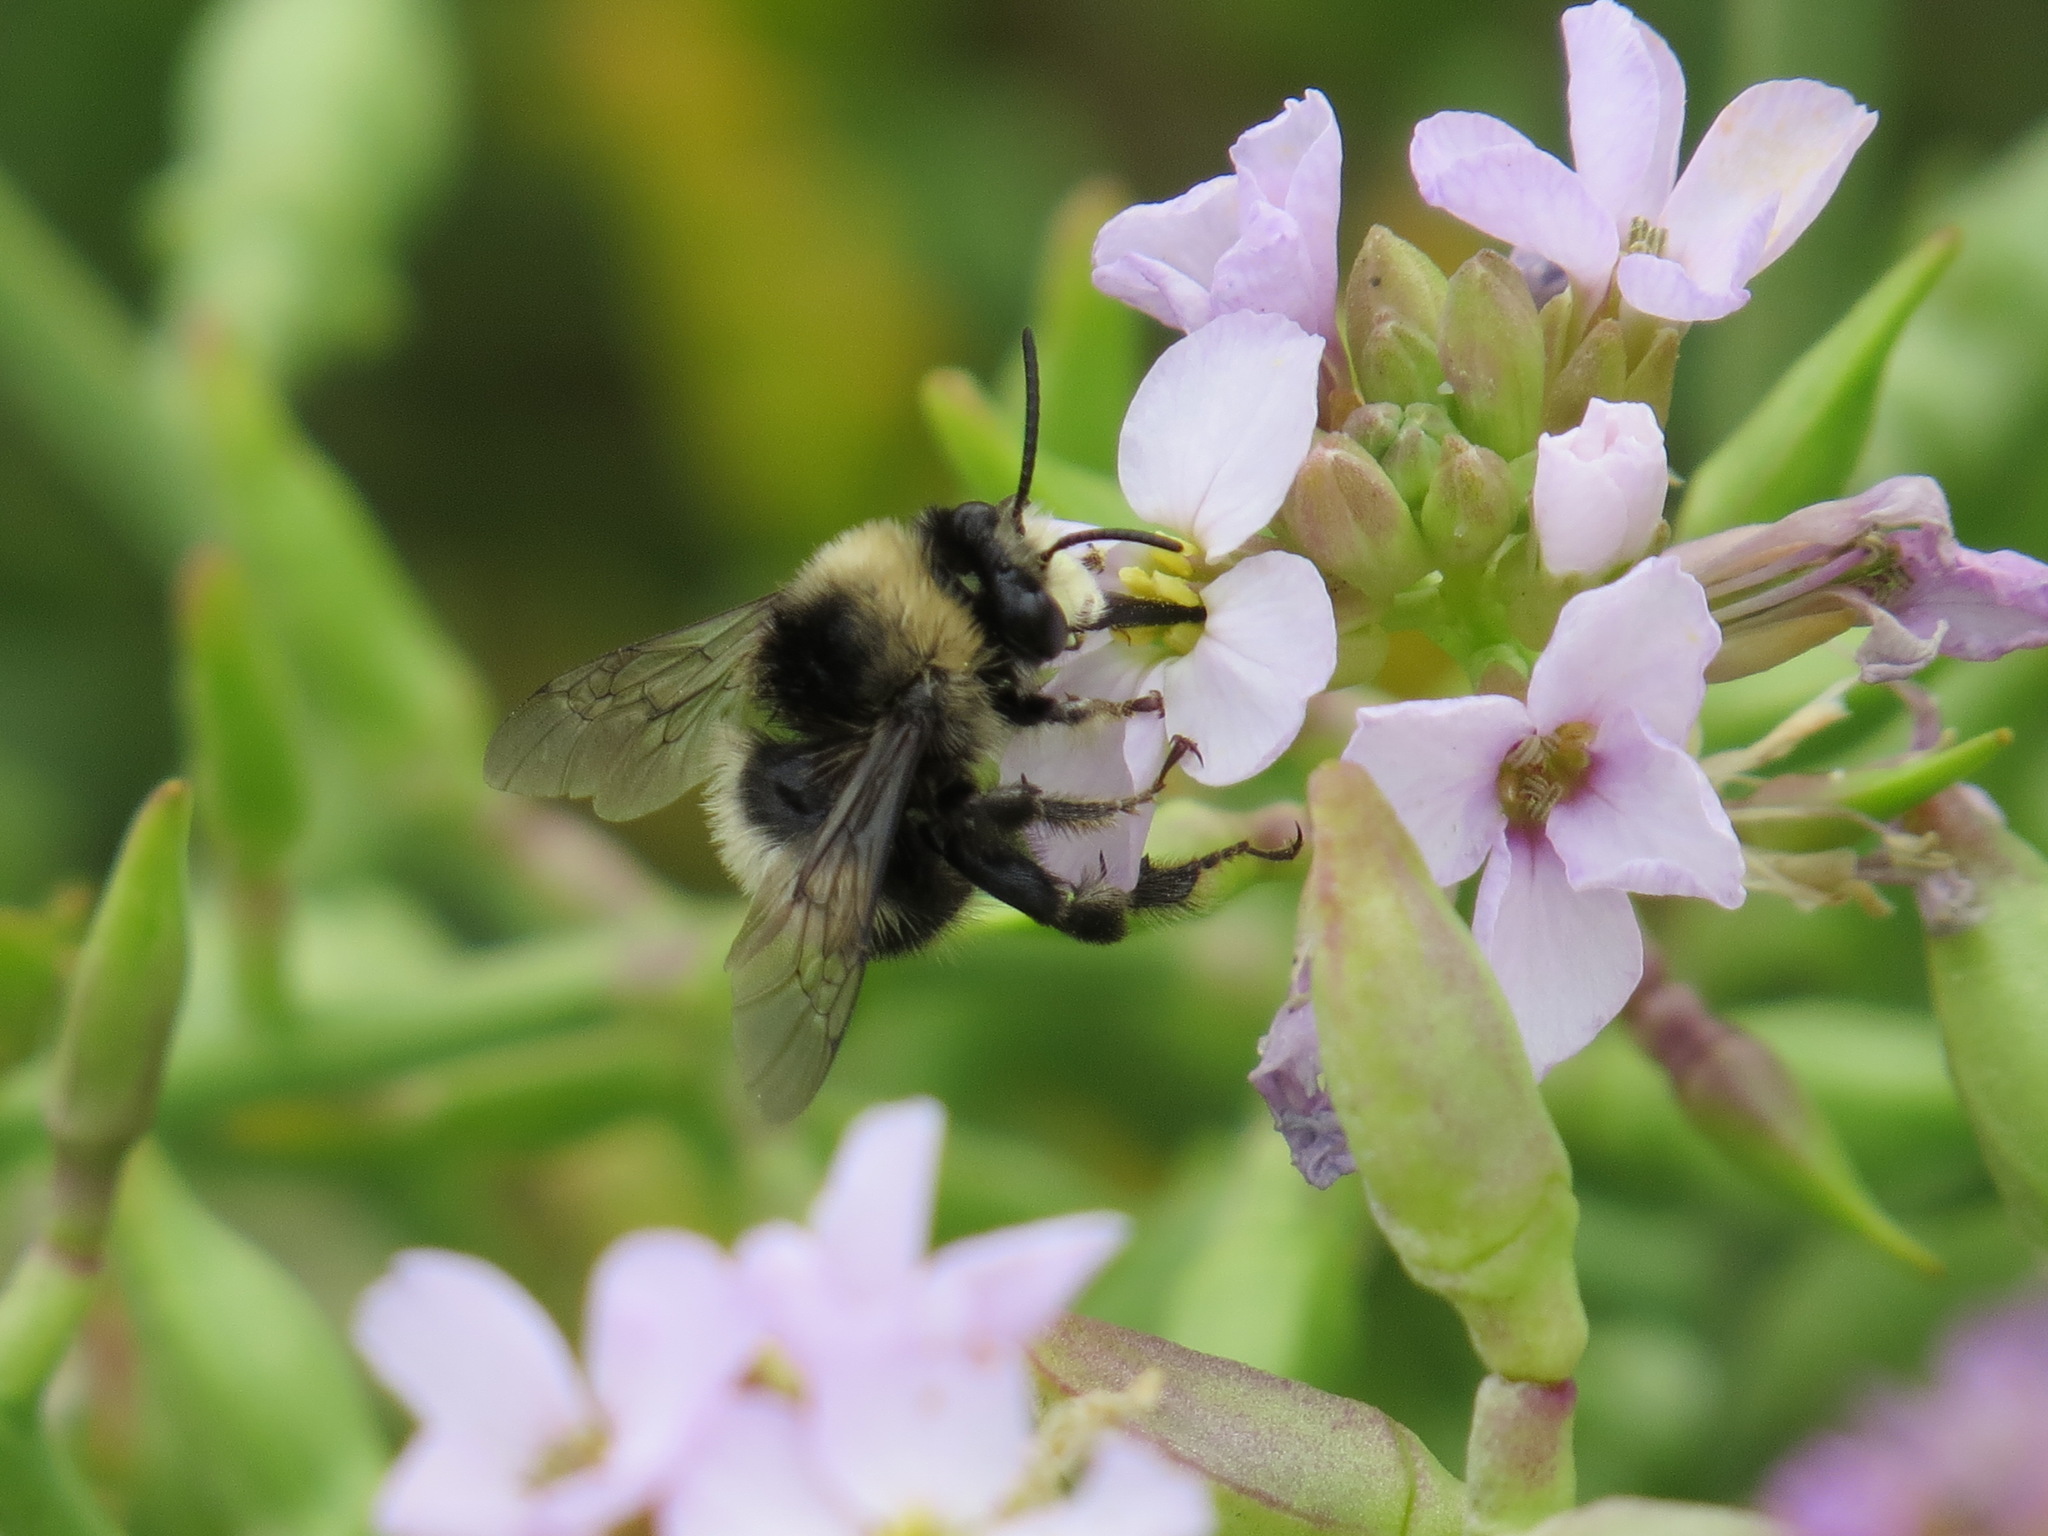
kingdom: Animalia
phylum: Arthropoda
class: Insecta
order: Hymenoptera
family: Apidae
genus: Anthophora
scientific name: Anthophora bomboides
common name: Bumble-bee-mimic digger bee
